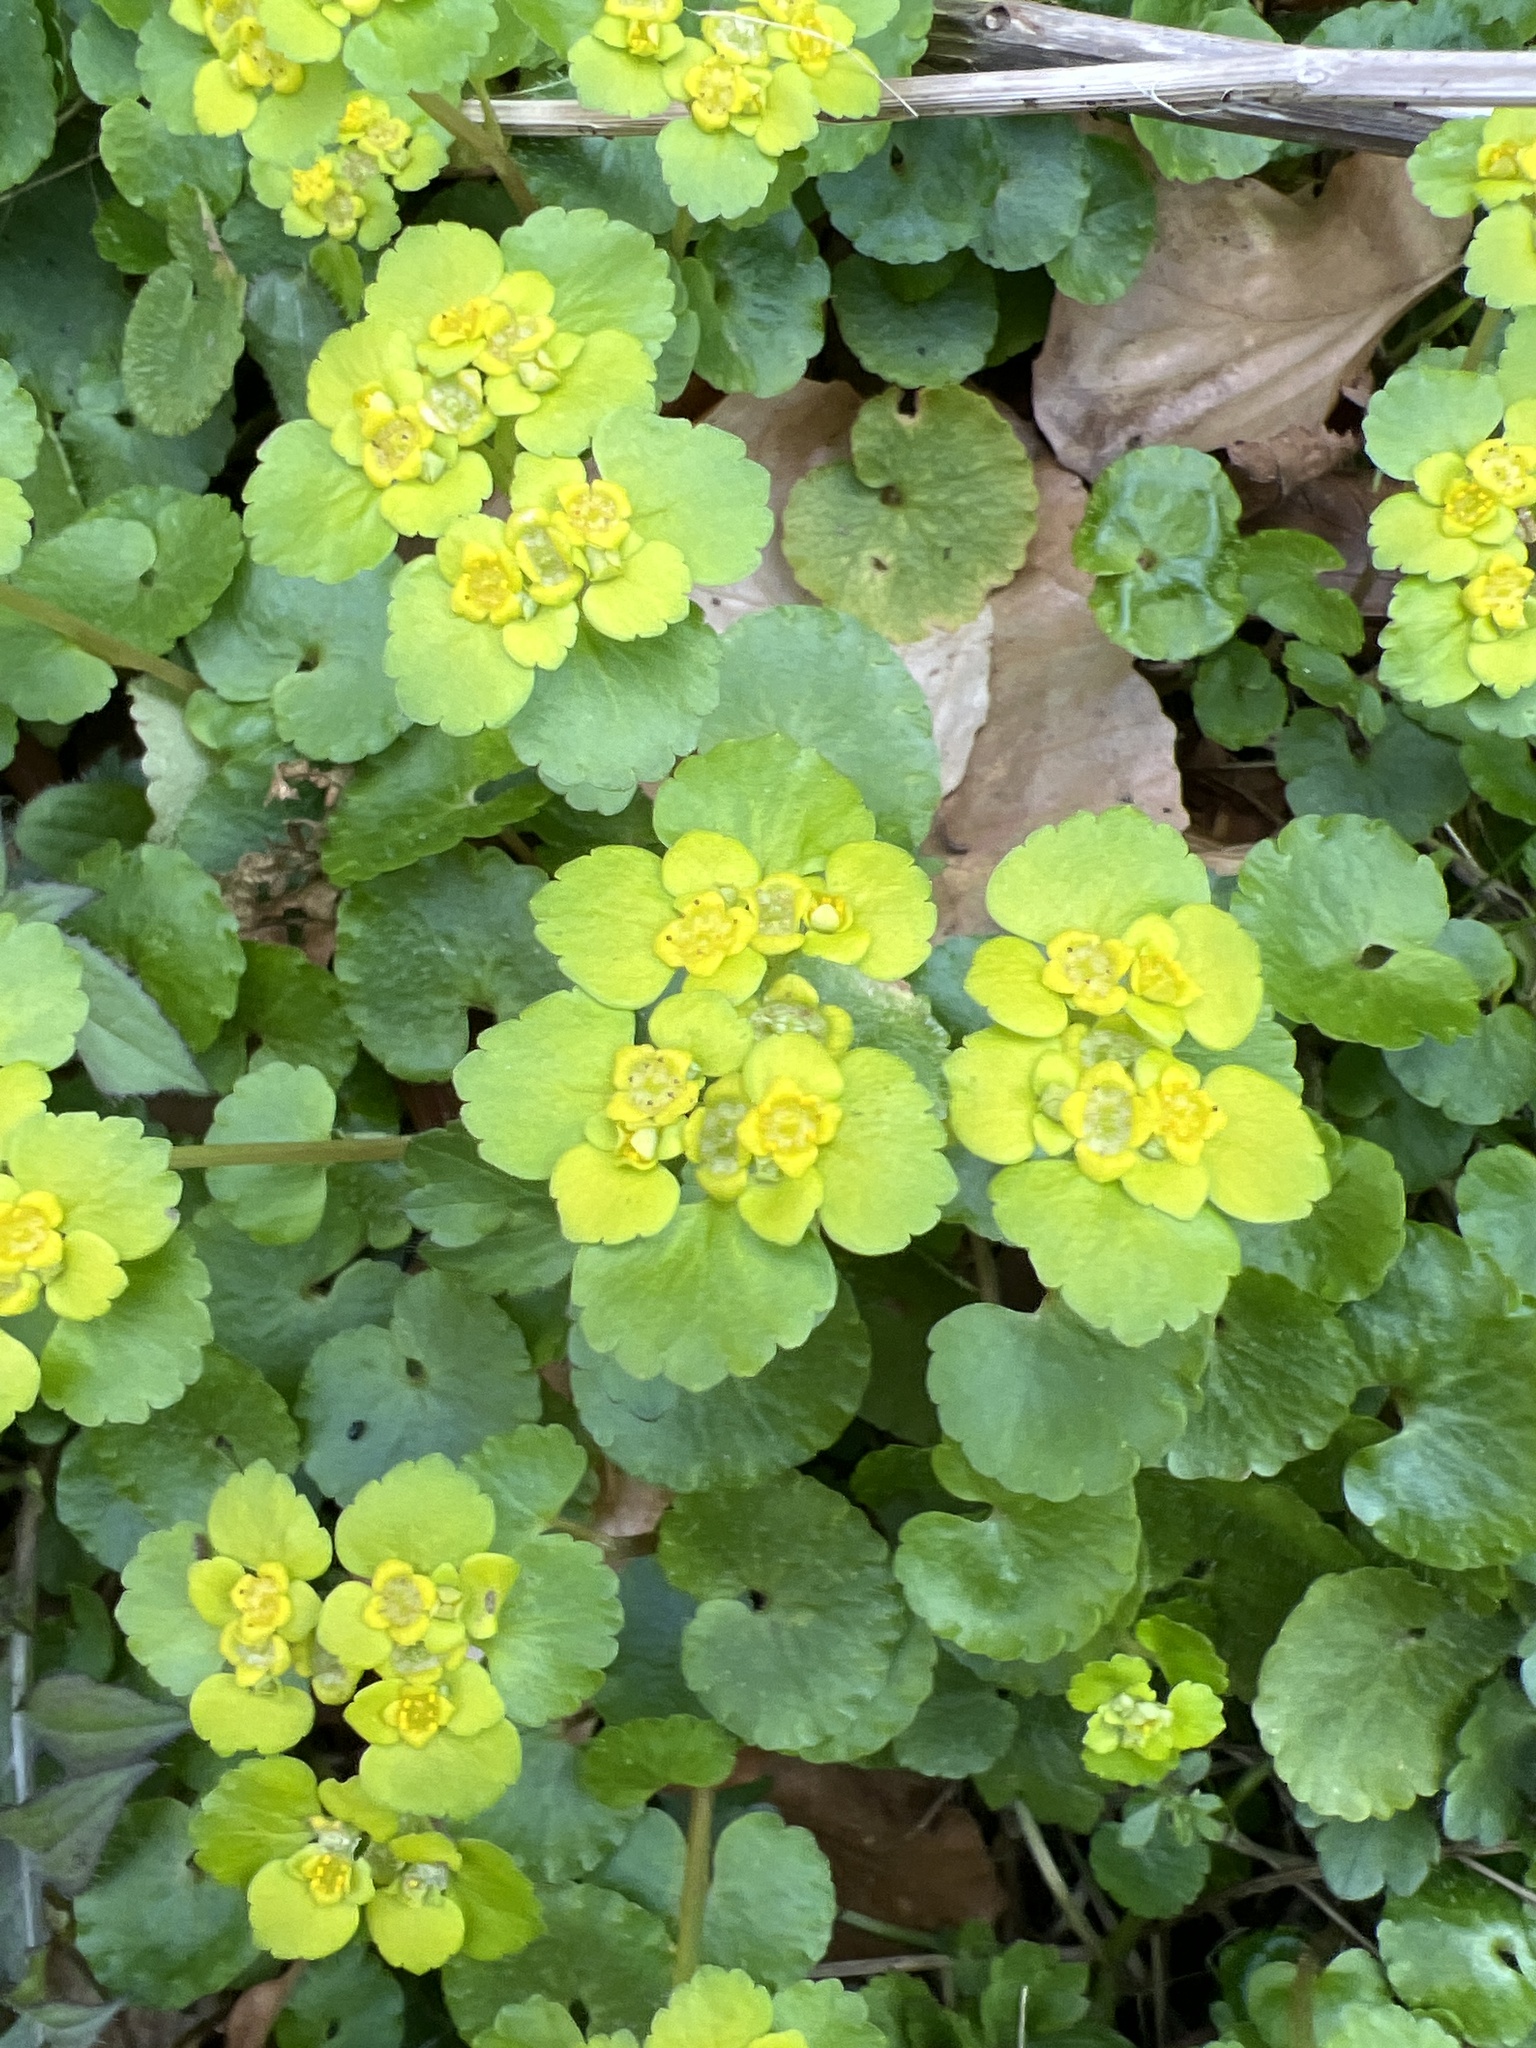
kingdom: Plantae
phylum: Tracheophyta
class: Magnoliopsida
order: Saxifragales
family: Saxifragaceae
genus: Chrysosplenium
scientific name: Chrysosplenium alternifolium
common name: Alternate-leaved golden-saxifrage
